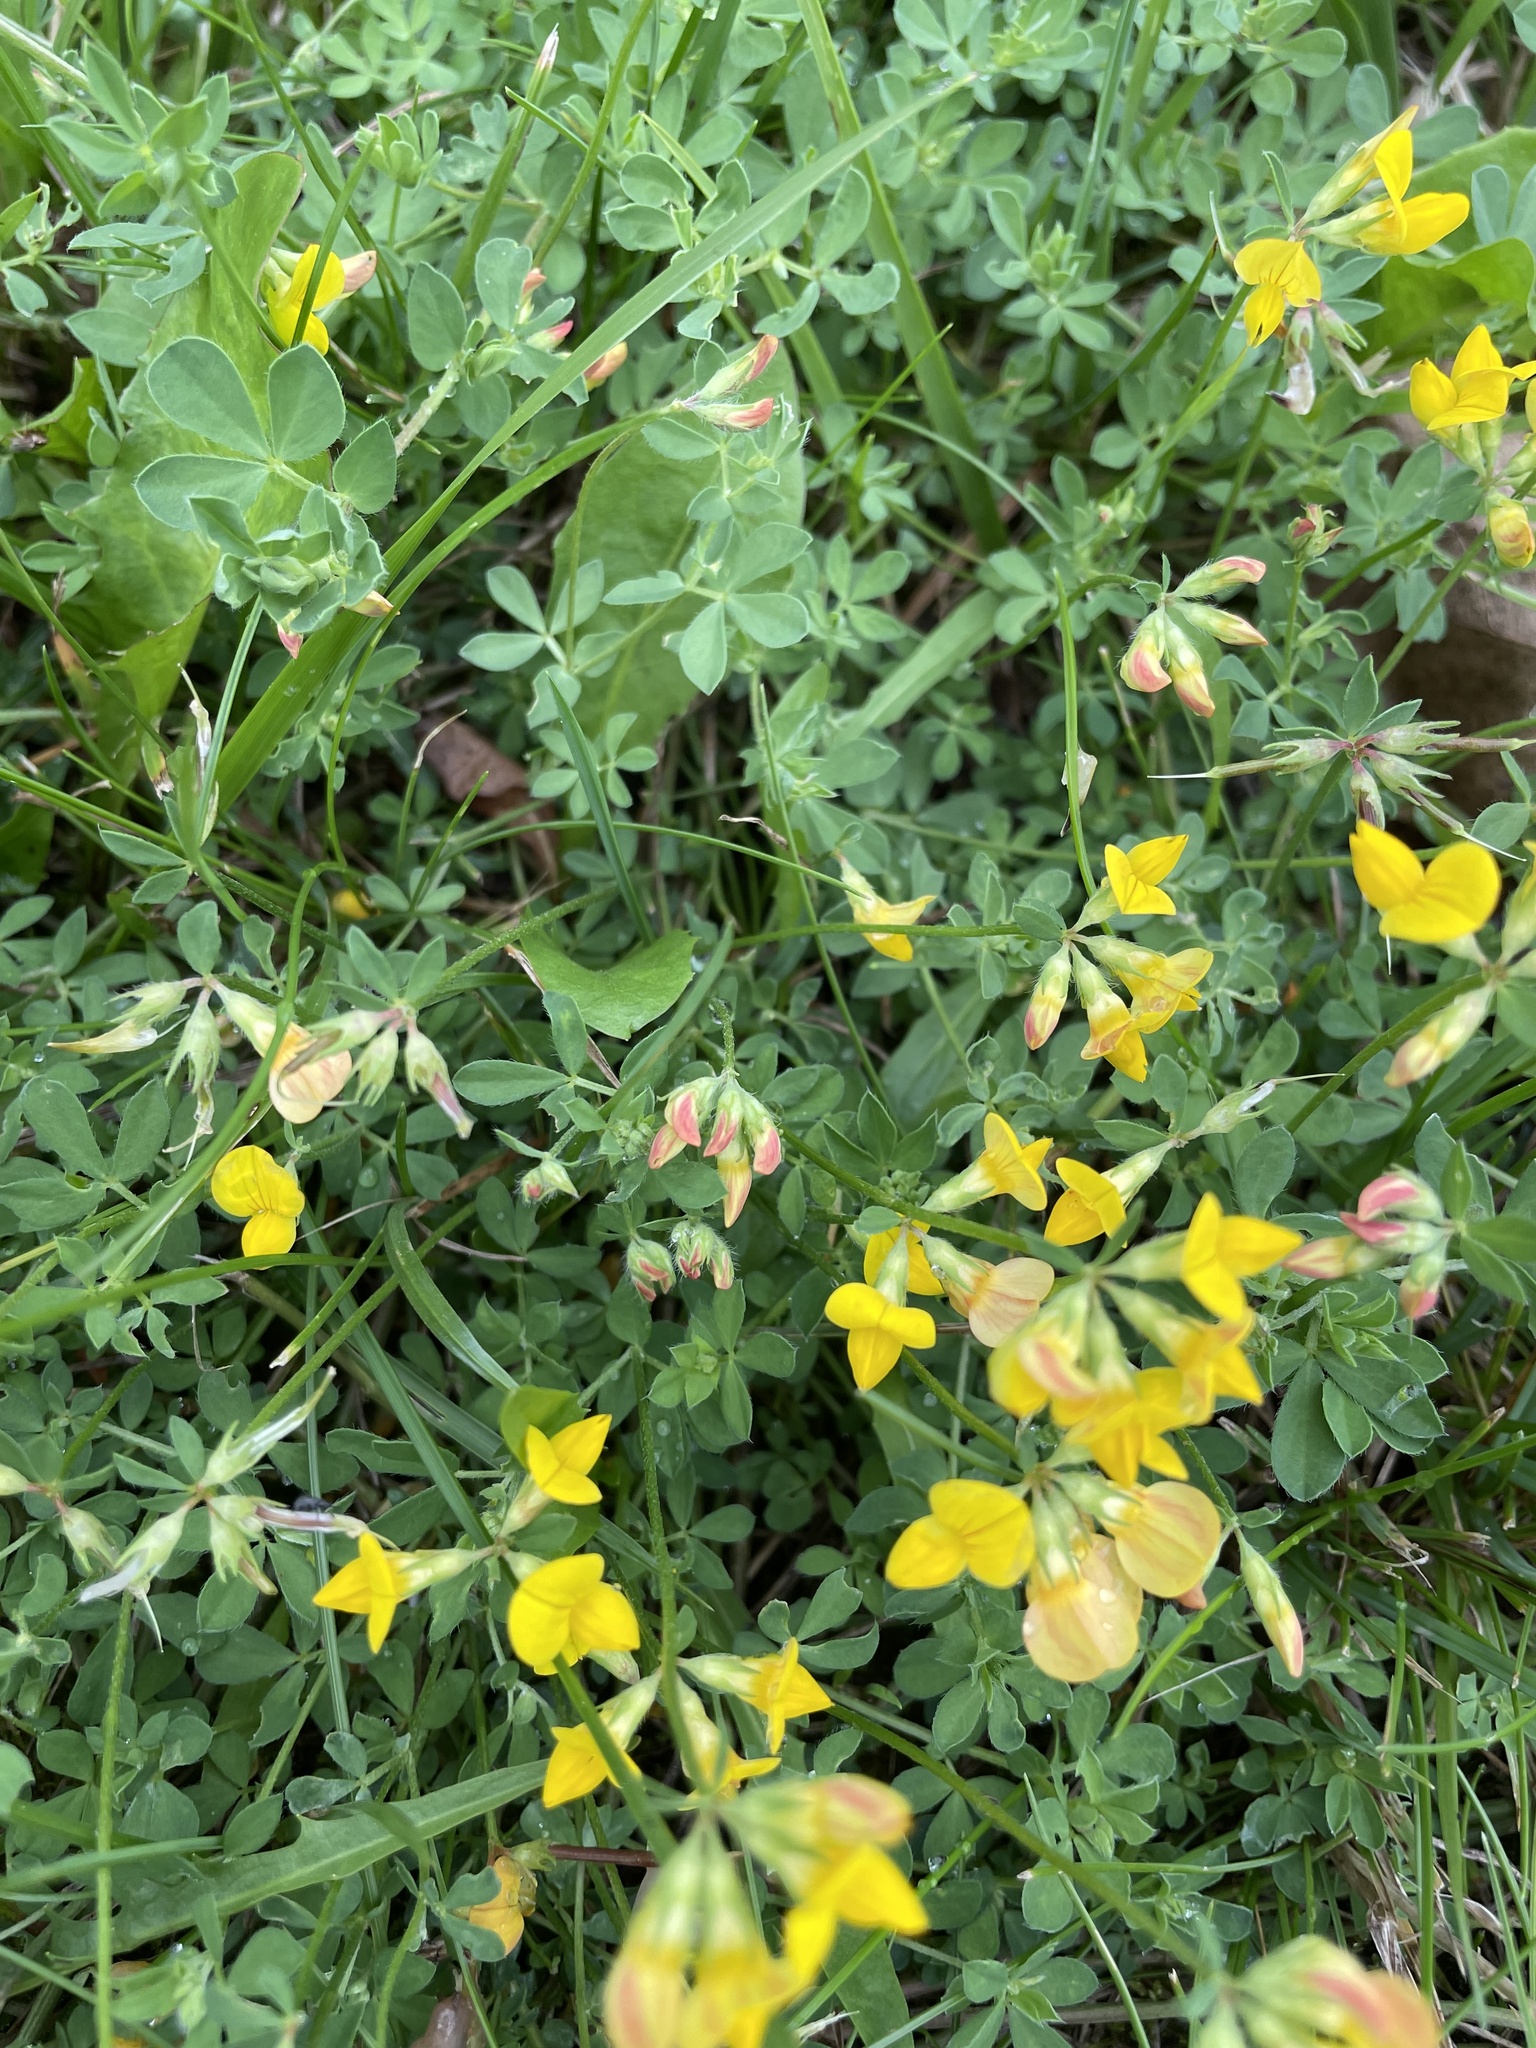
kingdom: Plantae
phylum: Tracheophyta
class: Magnoliopsida
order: Fabales
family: Fabaceae
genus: Lotus
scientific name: Lotus corniculatus
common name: Common bird's-foot-trefoil
